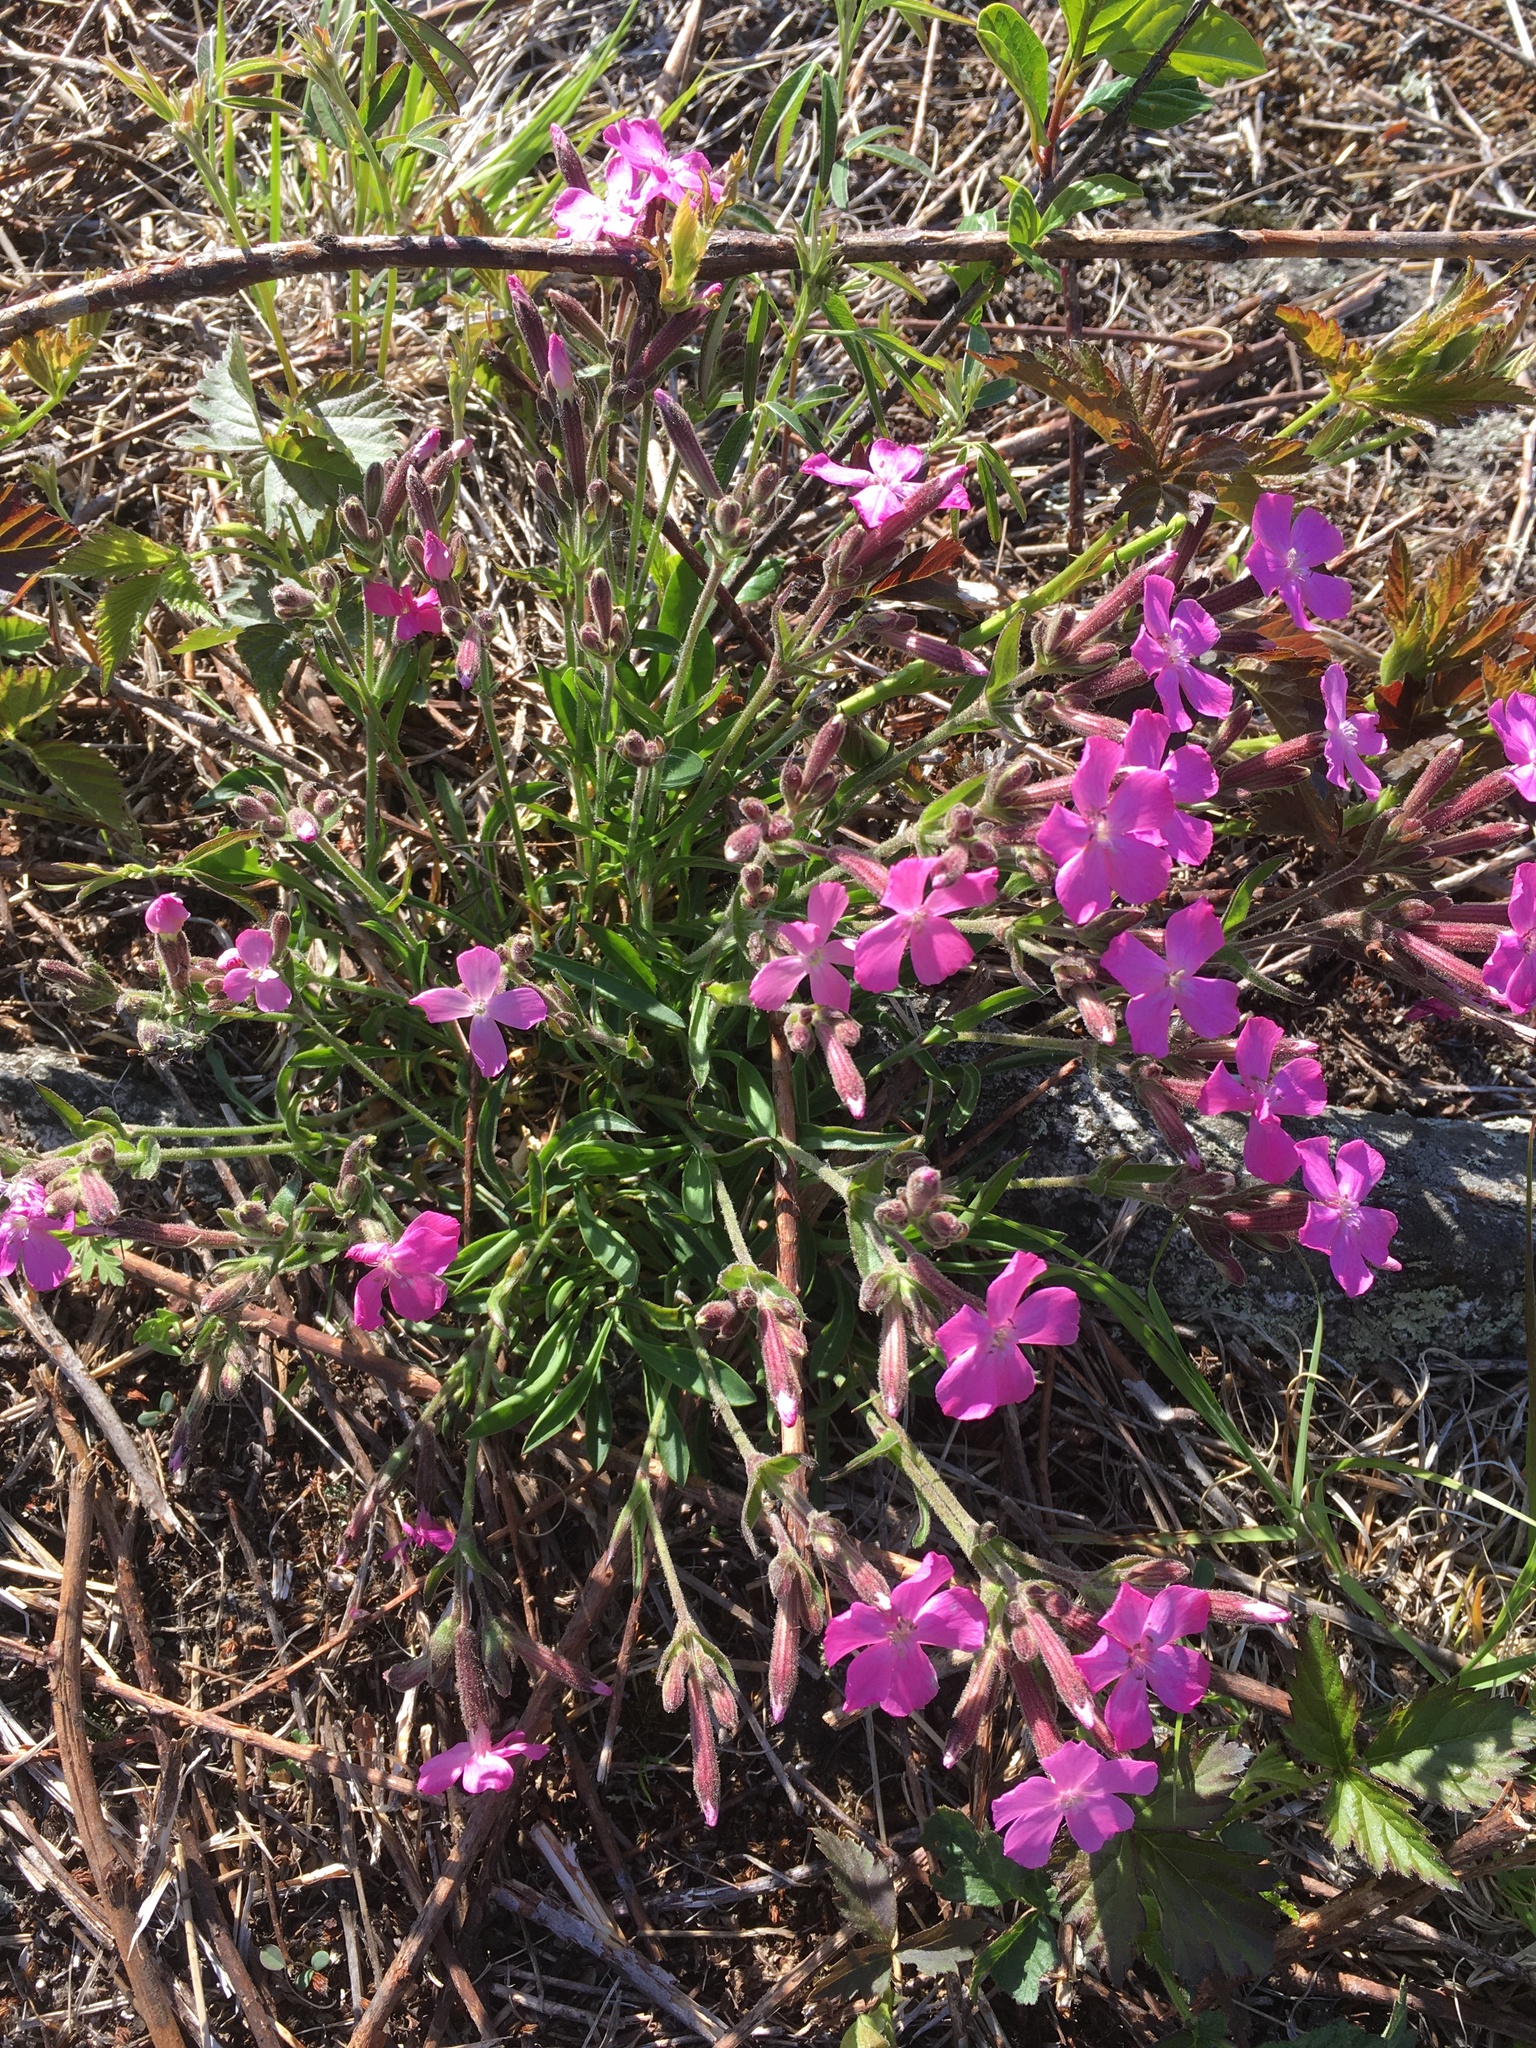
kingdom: Plantae
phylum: Tracheophyta
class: Magnoliopsida
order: Caryophyllales
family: Caryophyllaceae
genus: Silene
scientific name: Silene caroliniana
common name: Sticky catchfly
